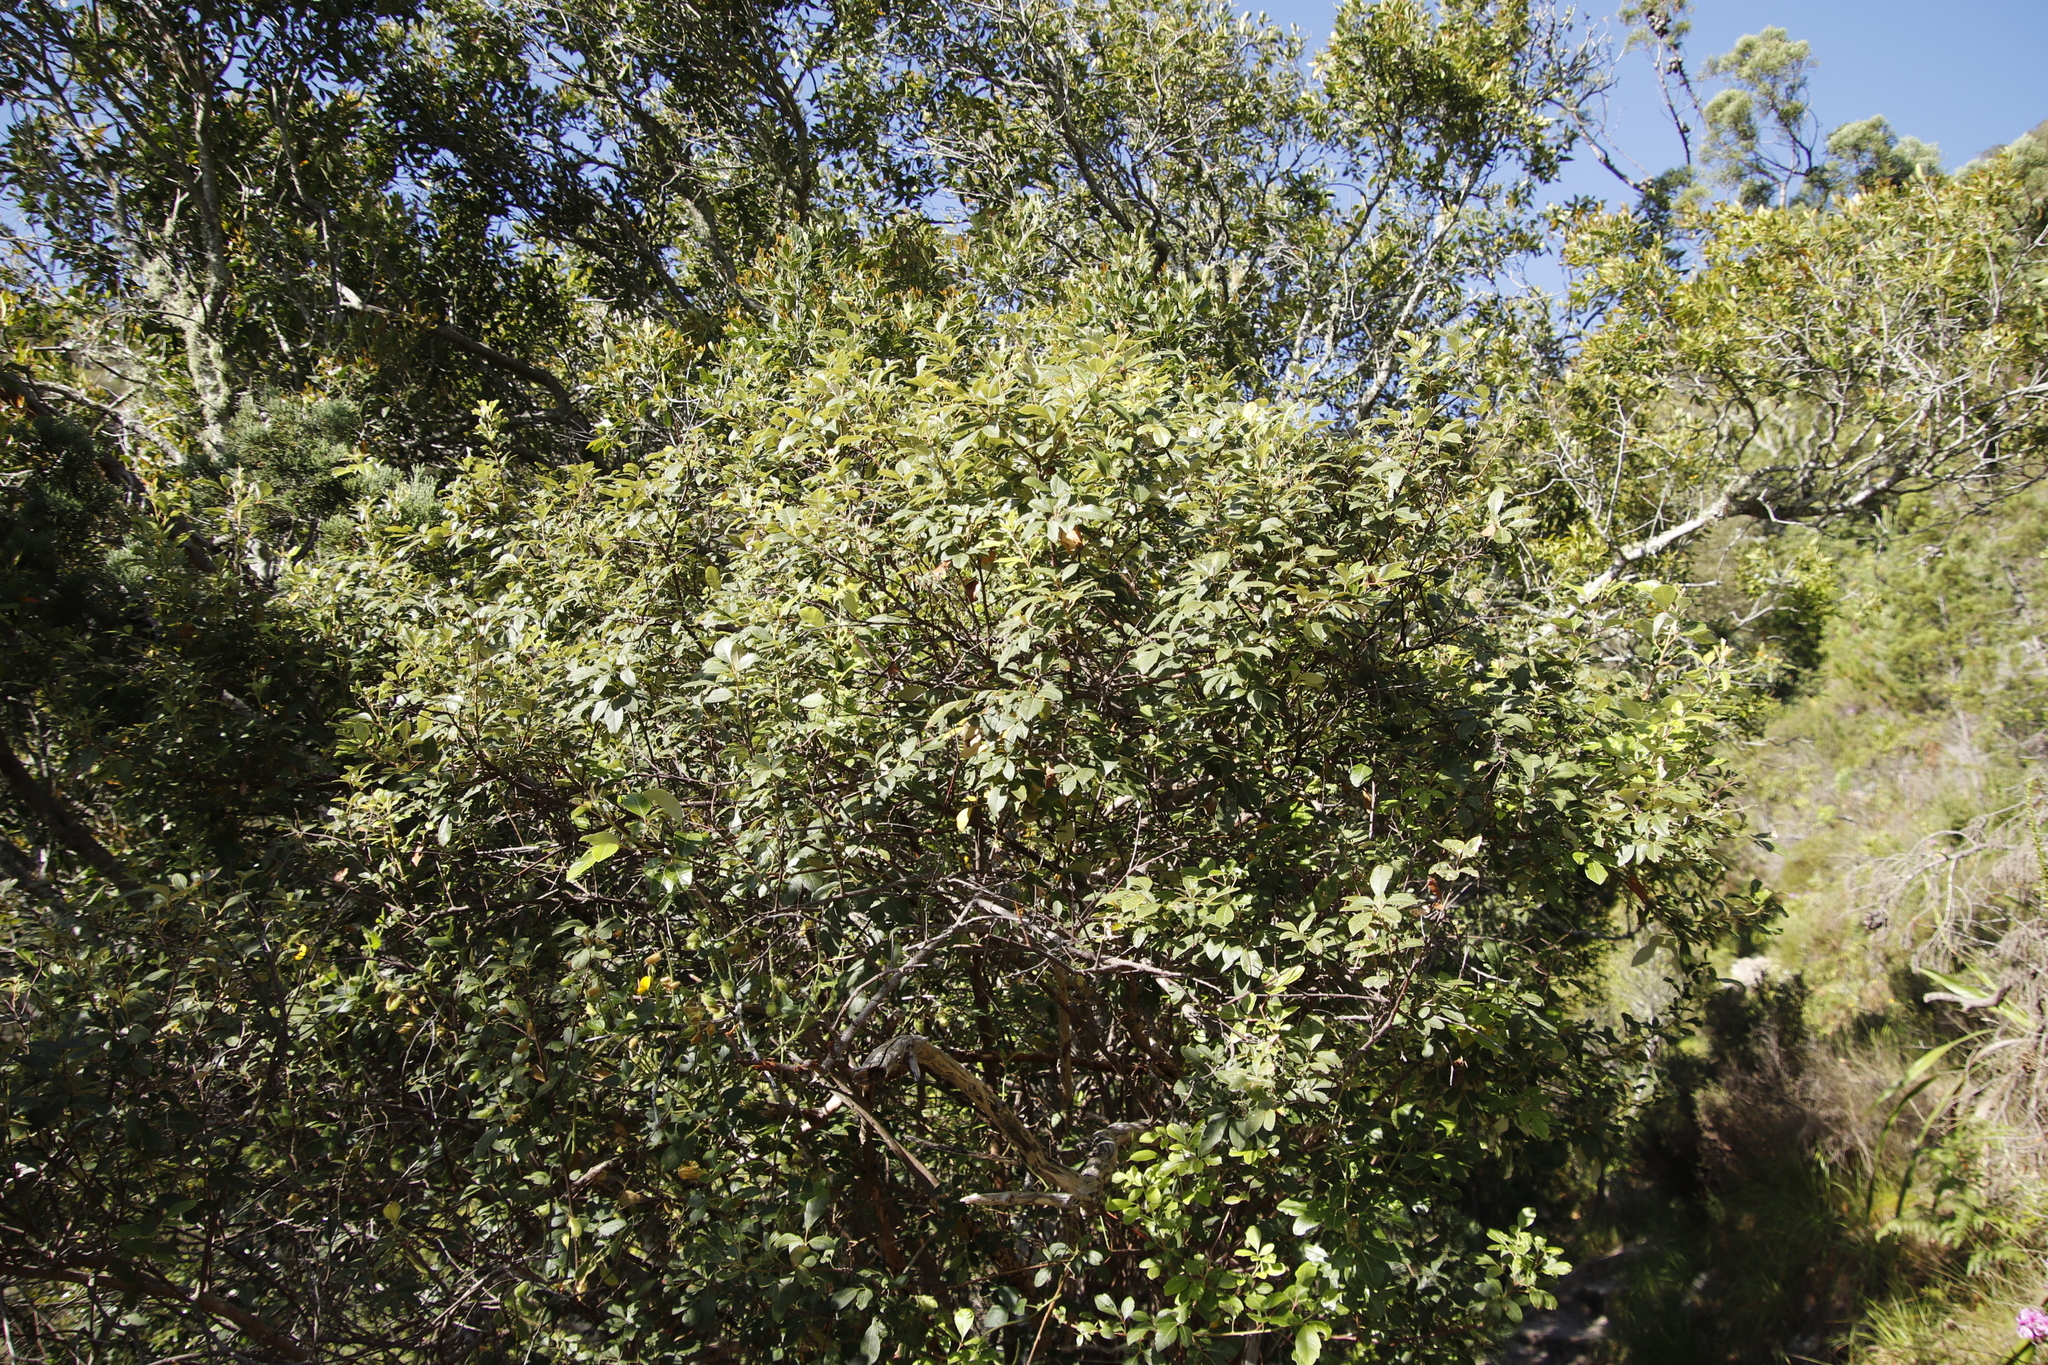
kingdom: Plantae
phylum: Tracheophyta
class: Magnoliopsida
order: Sapindales
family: Anacardiaceae
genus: Searsia
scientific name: Searsia tomentosa
